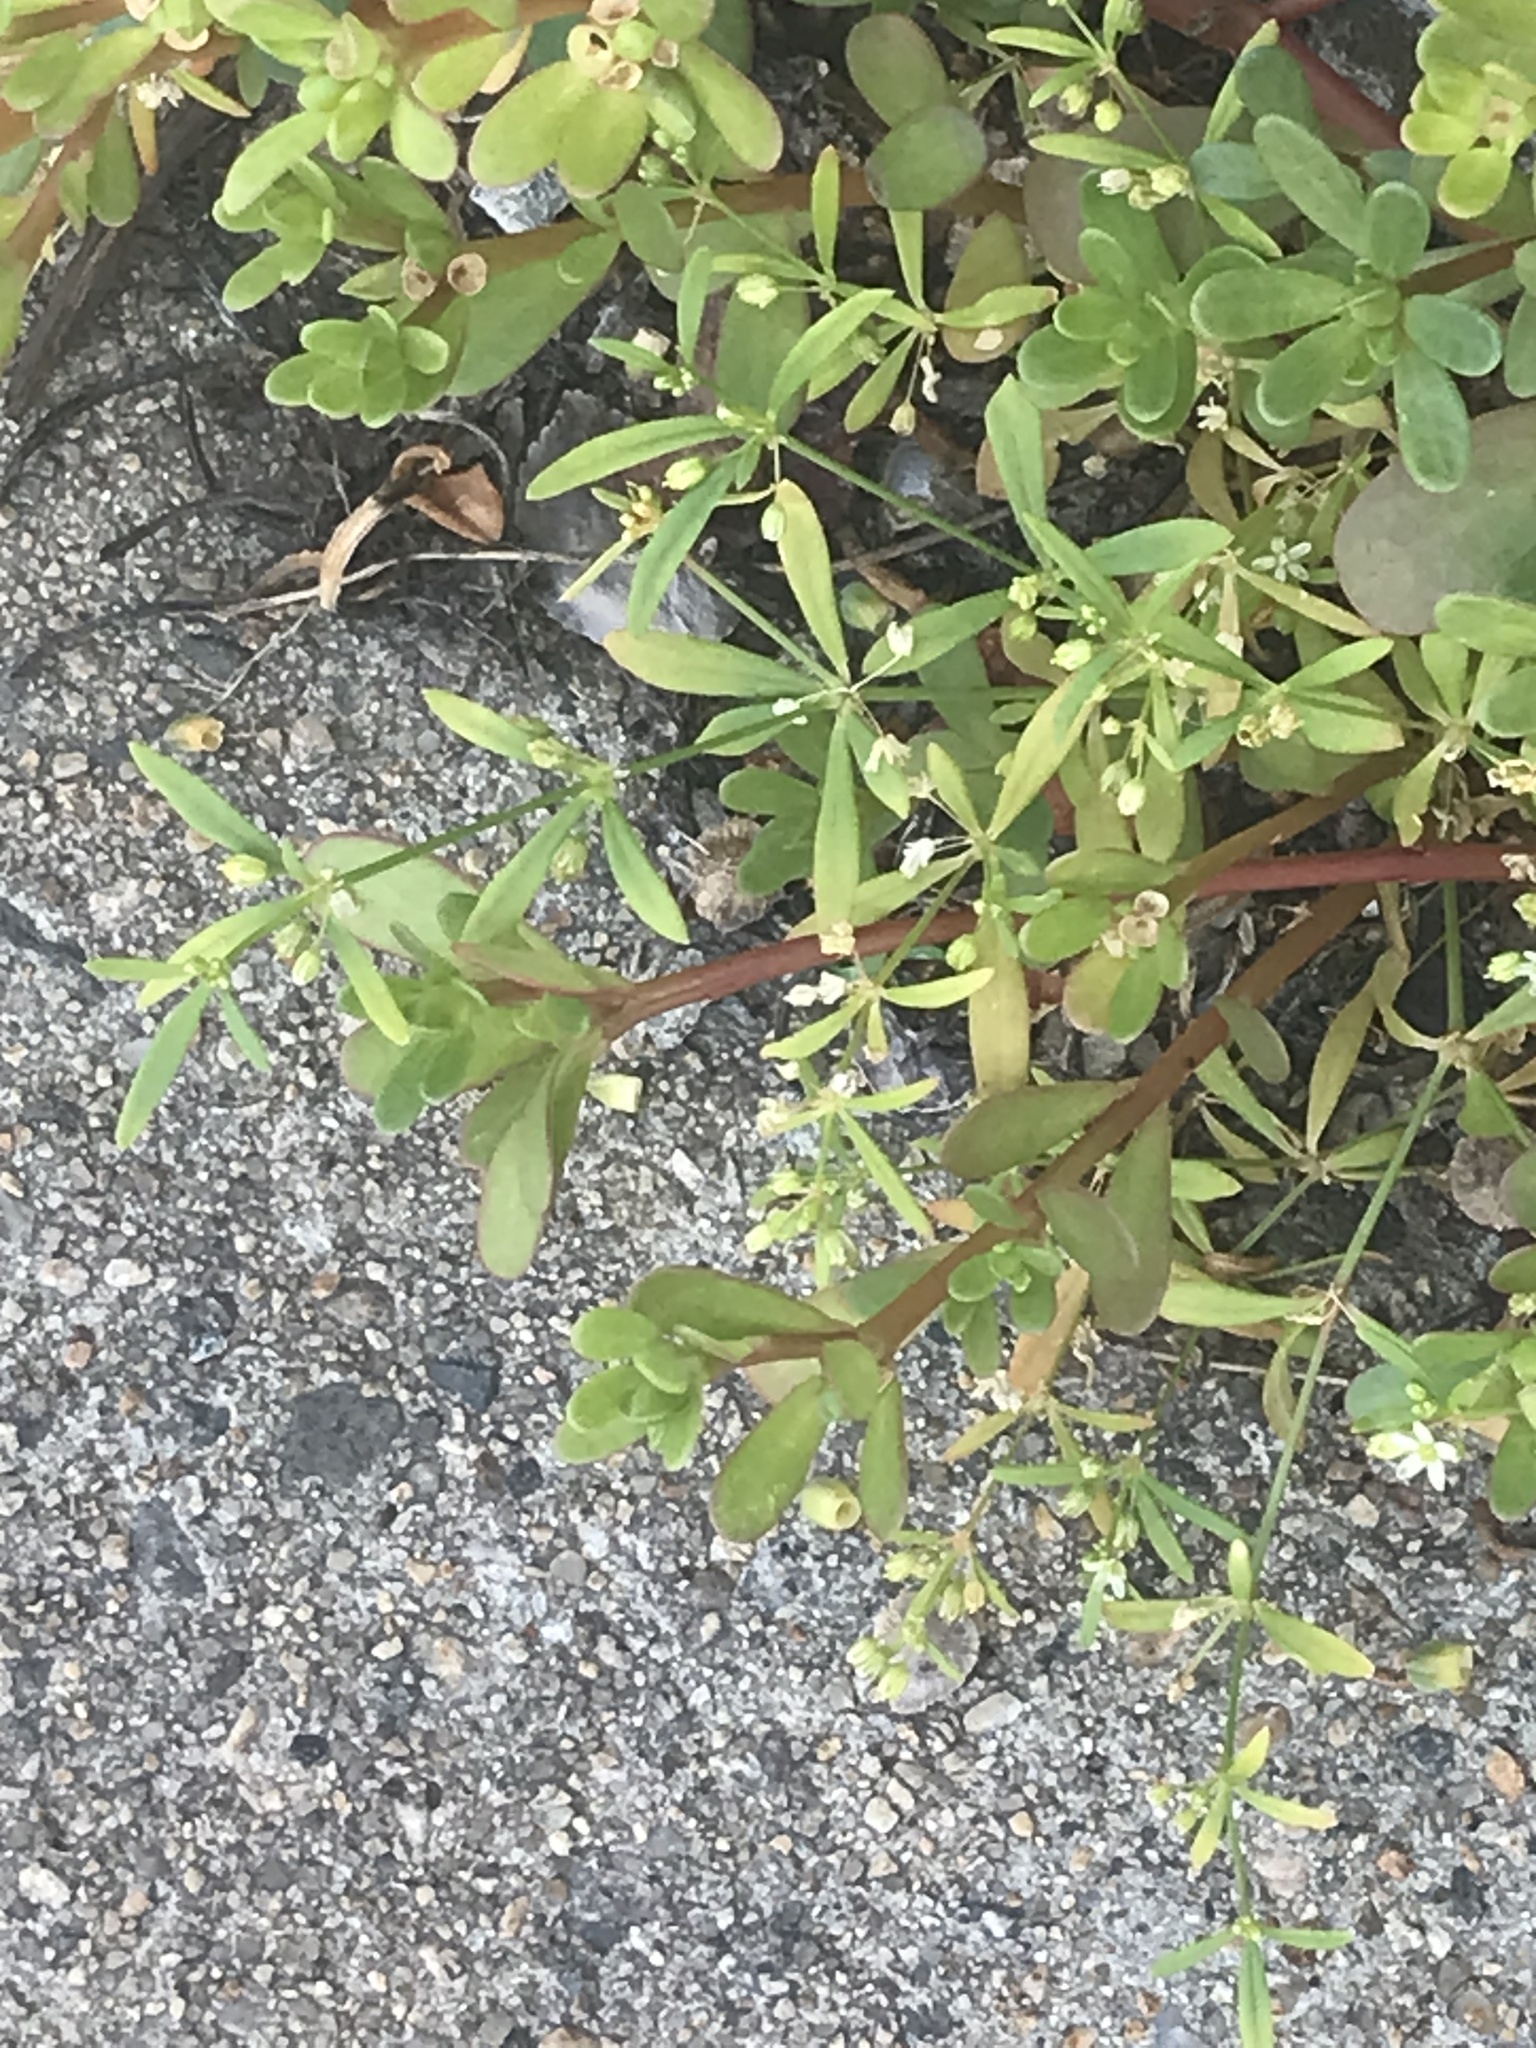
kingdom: Plantae
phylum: Tracheophyta
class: Magnoliopsida
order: Caryophyllales
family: Molluginaceae
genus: Mollugo
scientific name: Mollugo verticillata
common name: Green carpetweed
